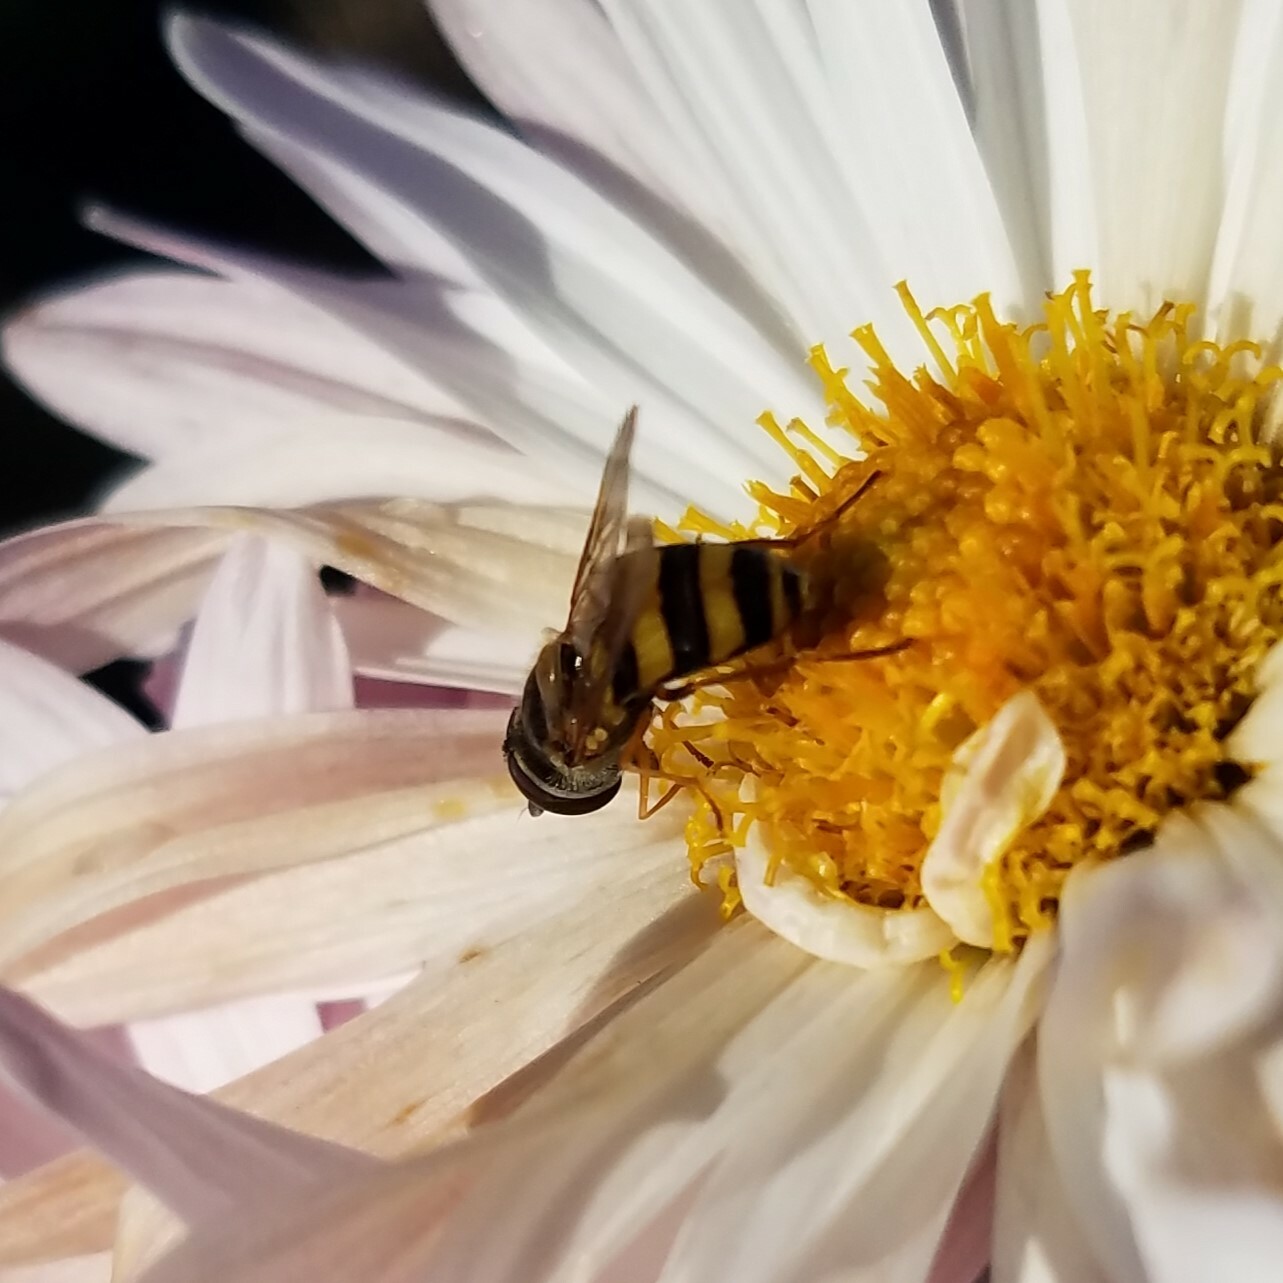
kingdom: Animalia
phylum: Arthropoda
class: Insecta
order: Diptera
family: Syrphidae
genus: Eupeodes
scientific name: Eupeodes
